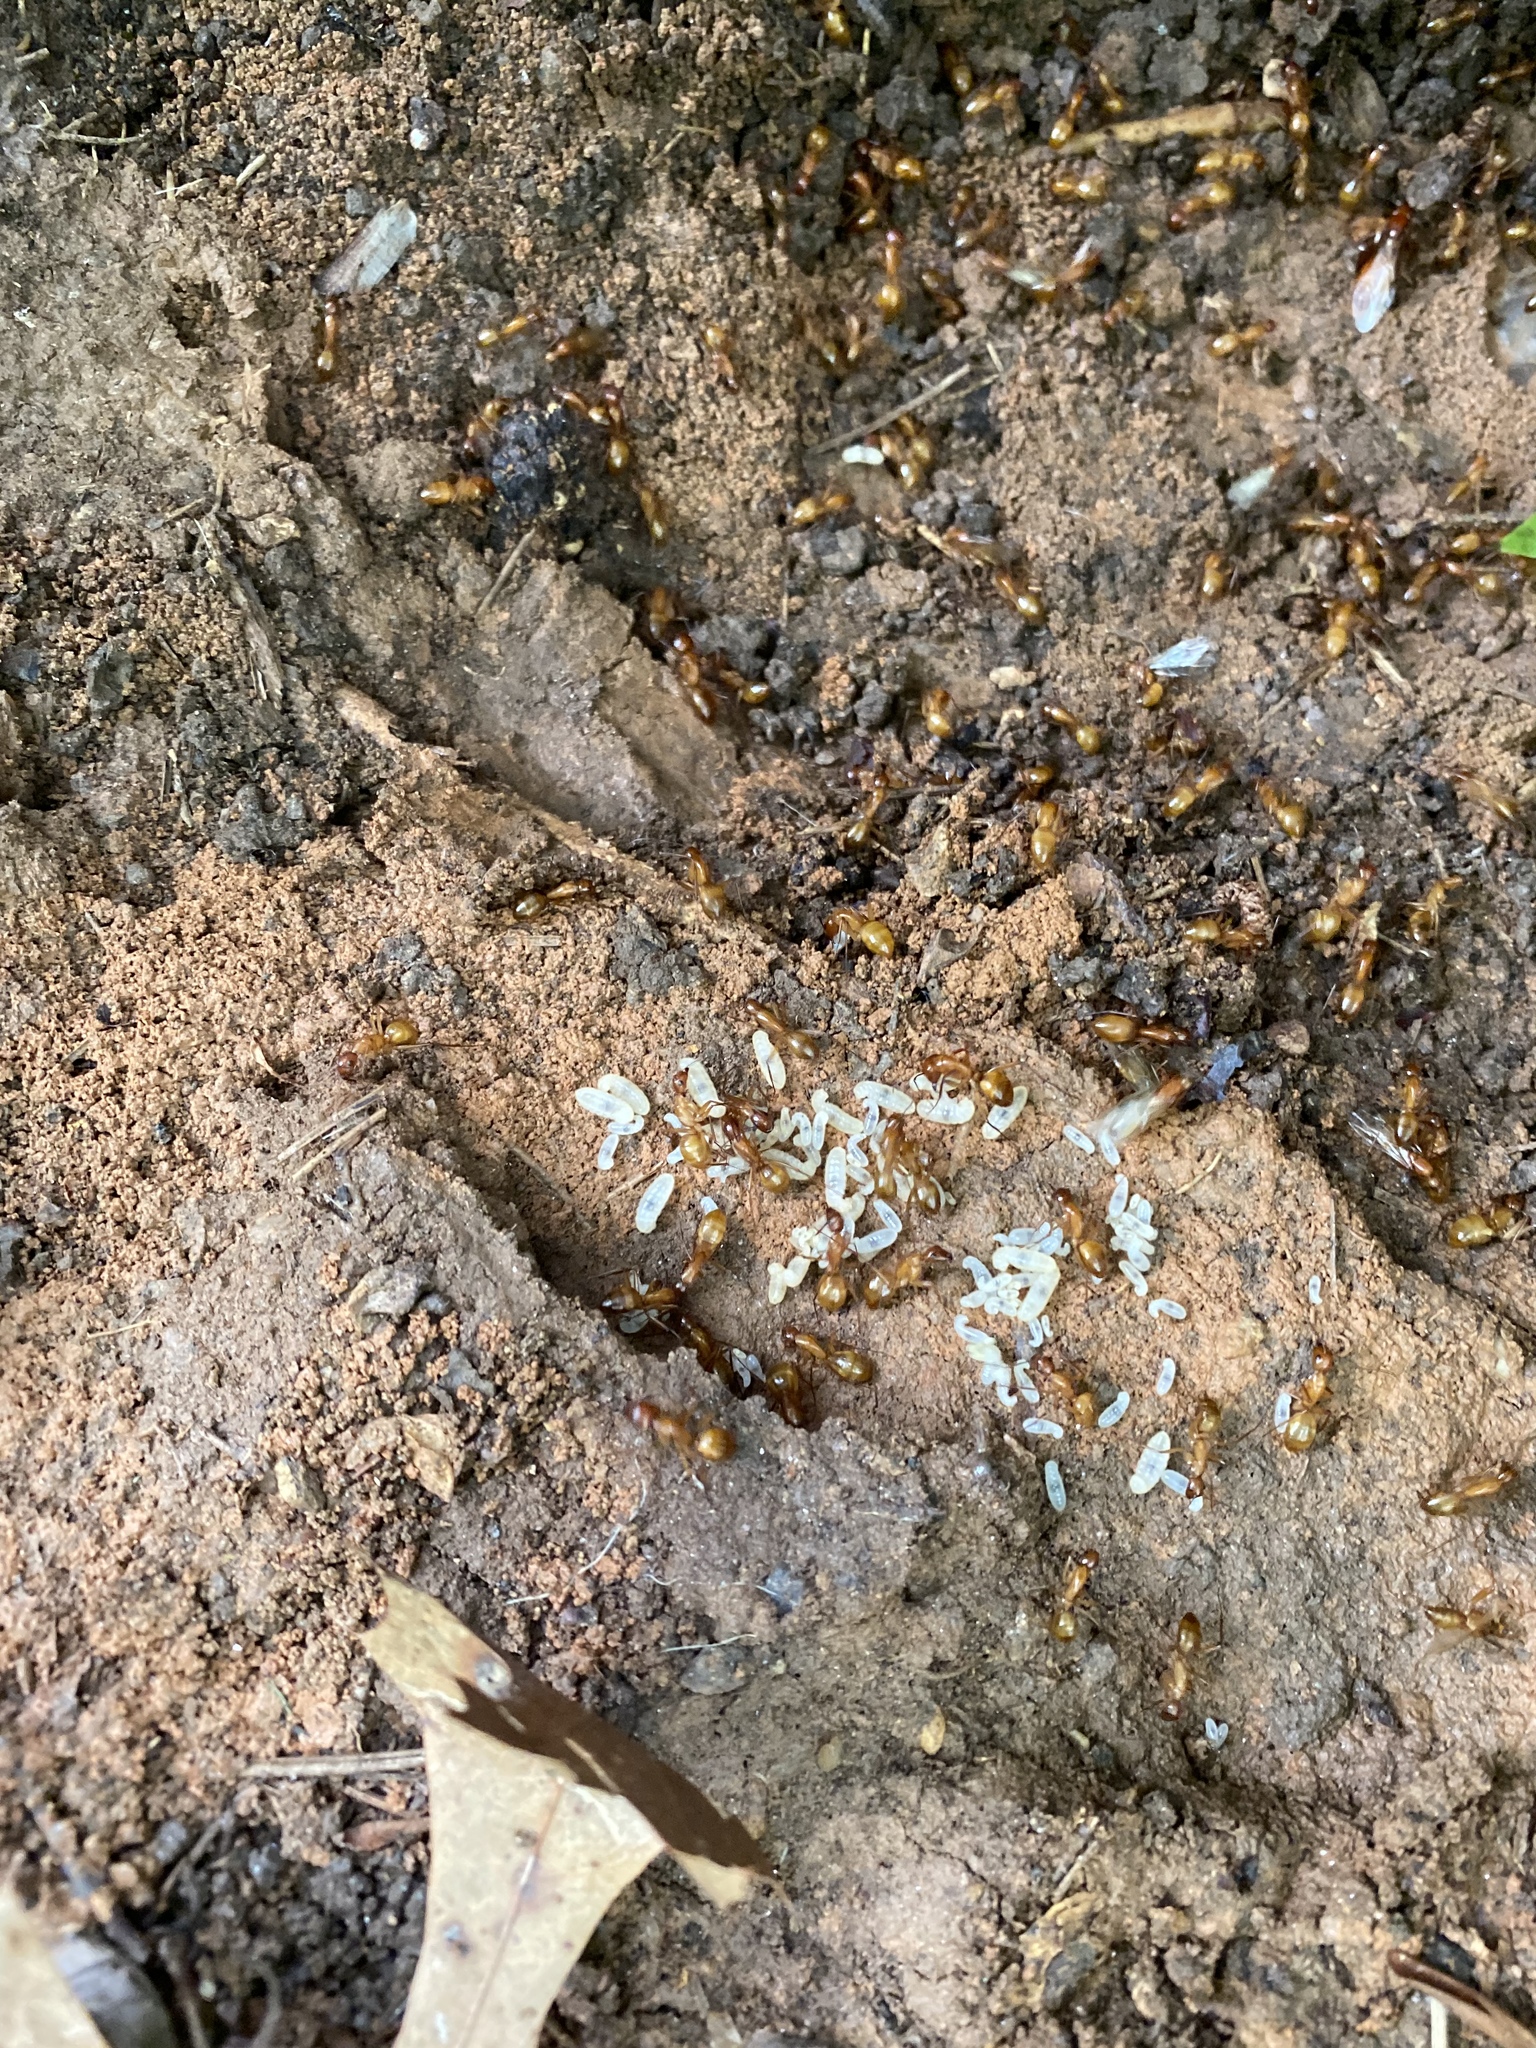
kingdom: Animalia
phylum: Arthropoda
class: Insecta
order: Hymenoptera
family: Formicidae
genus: Camponotus
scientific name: Camponotus castaneus
